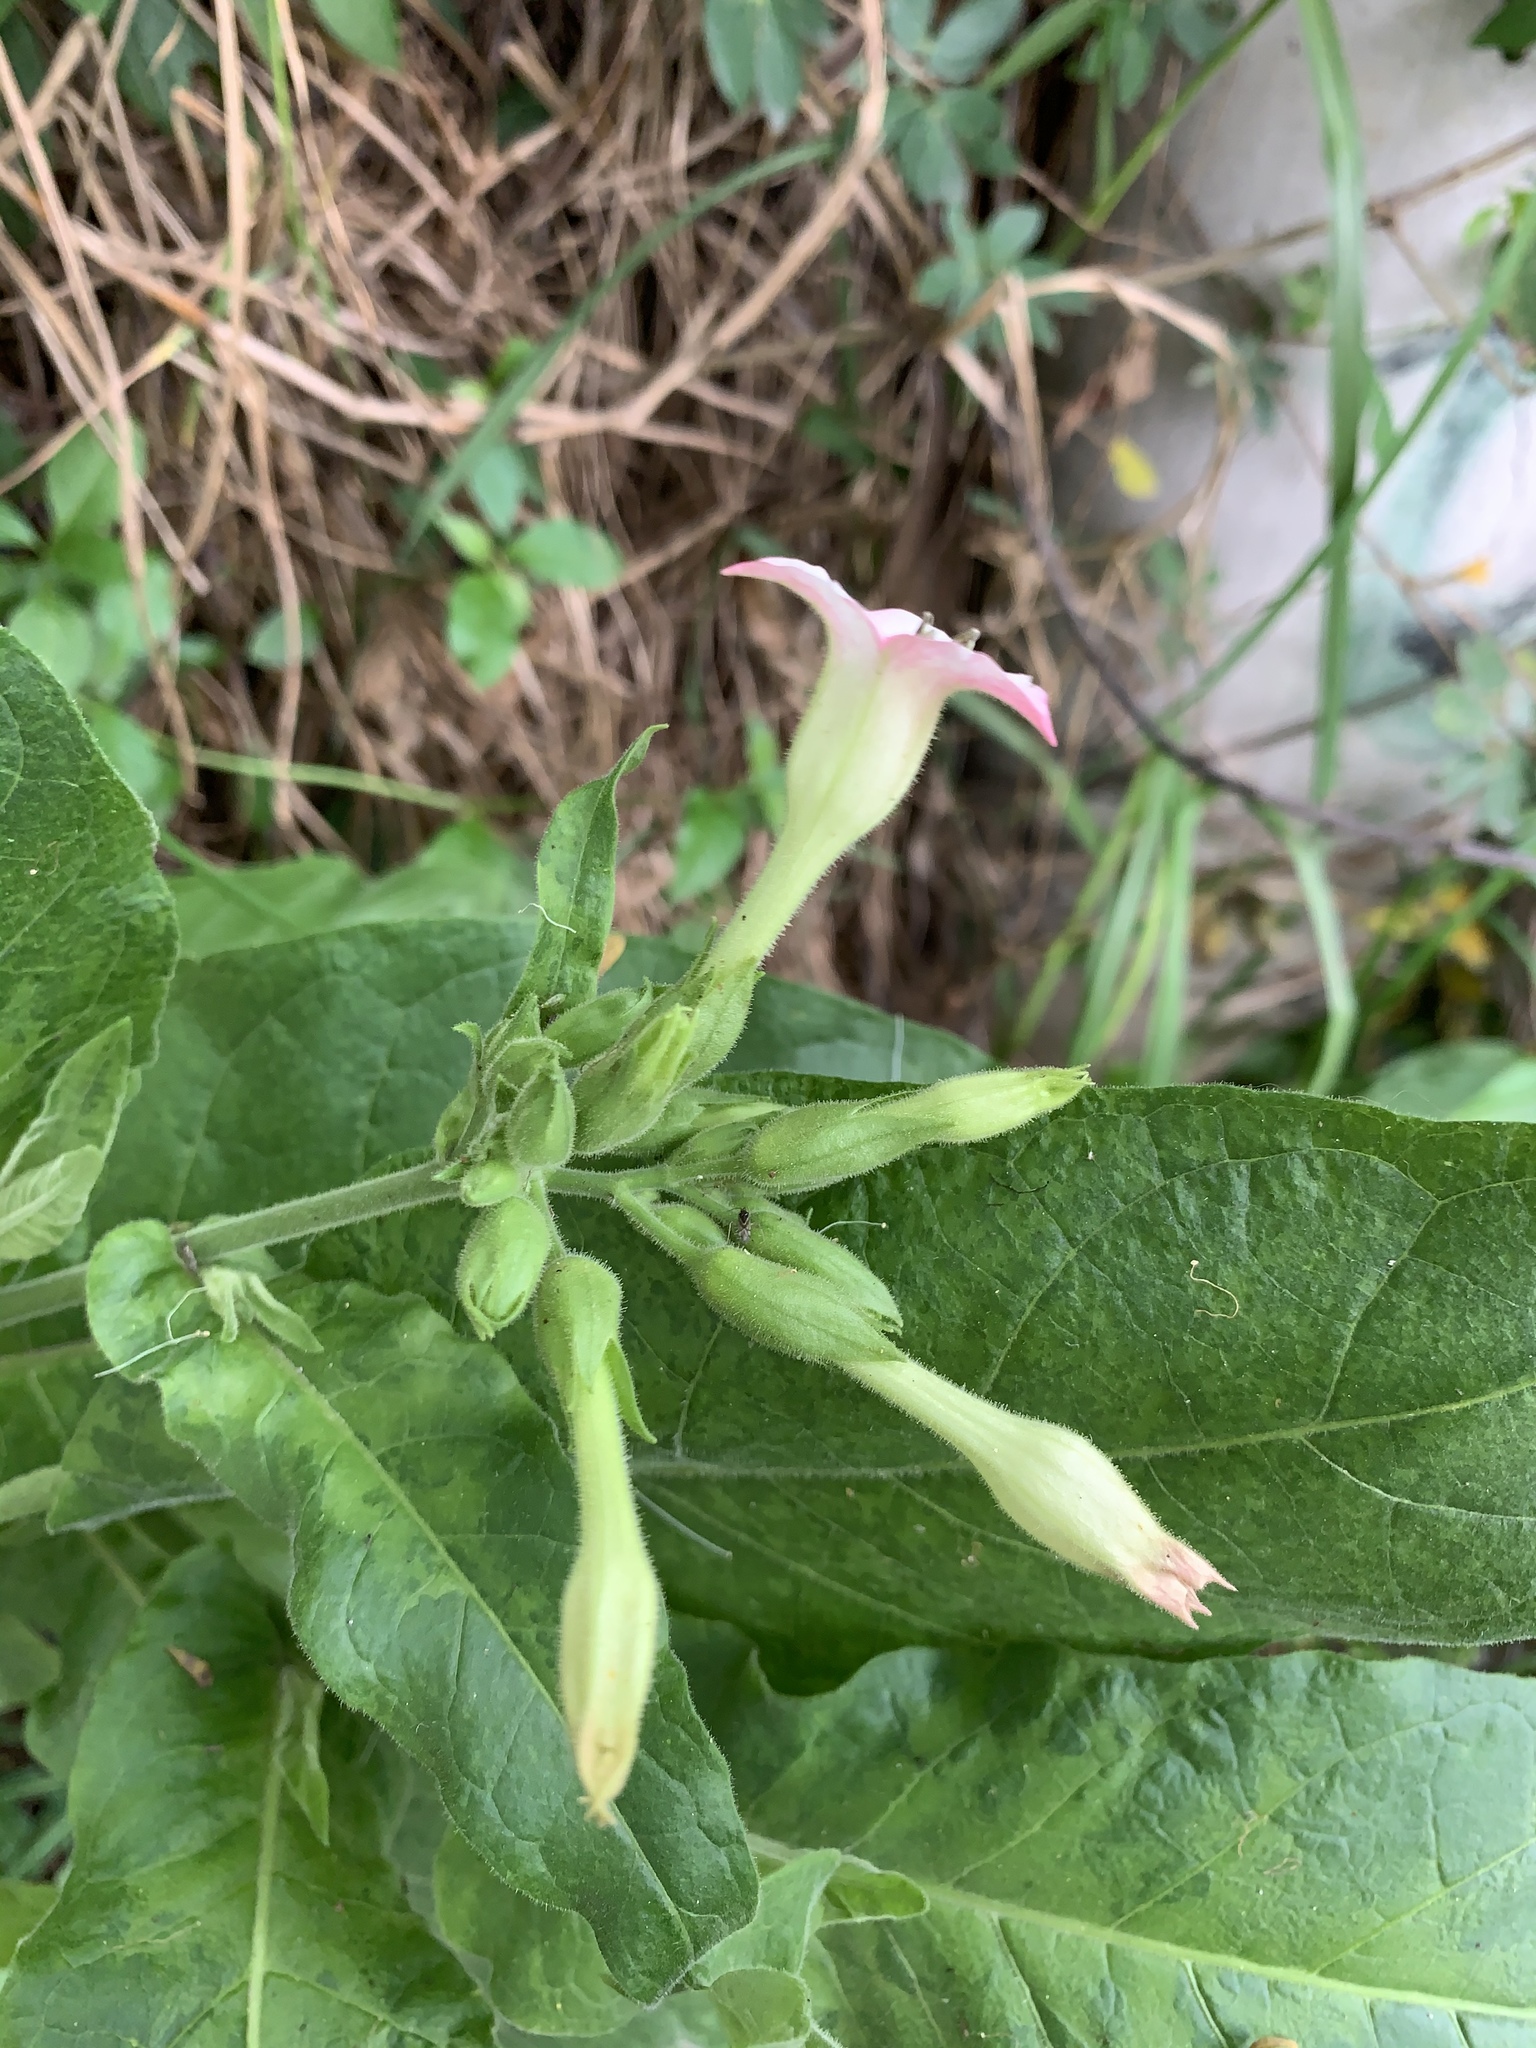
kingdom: Plantae
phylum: Tracheophyta
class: Magnoliopsida
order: Solanales
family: Solanaceae
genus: Nicotiana
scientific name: Nicotiana tabacum
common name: Tobacco
